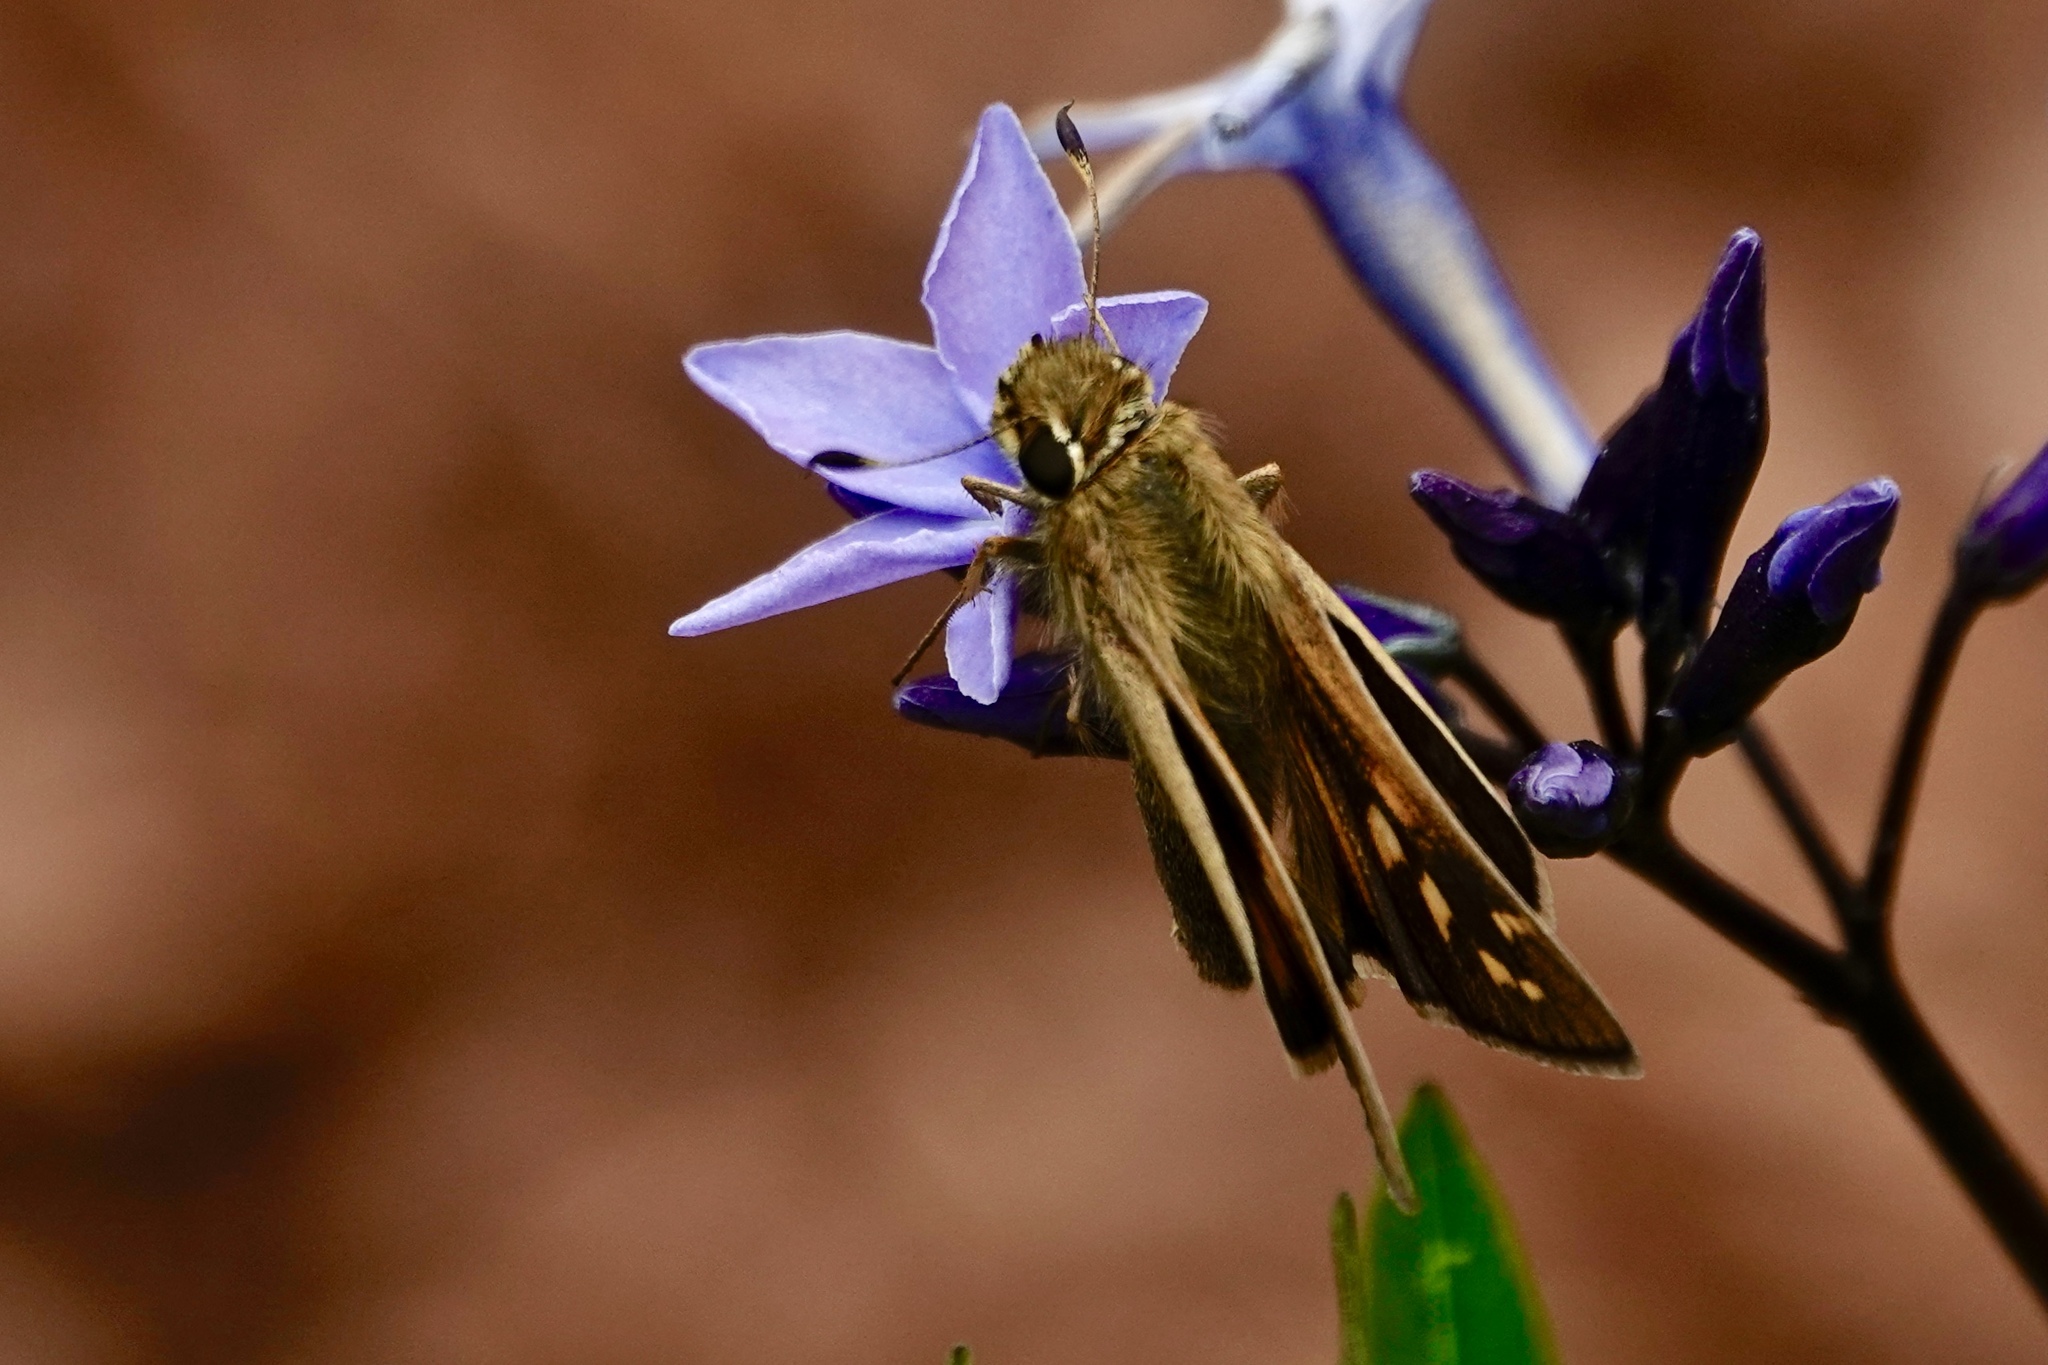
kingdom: Animalia
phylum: Arthropoda
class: Insecta
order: Lepidoptera
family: Hesperiidae
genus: Atalopedes
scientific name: Atalopedes
